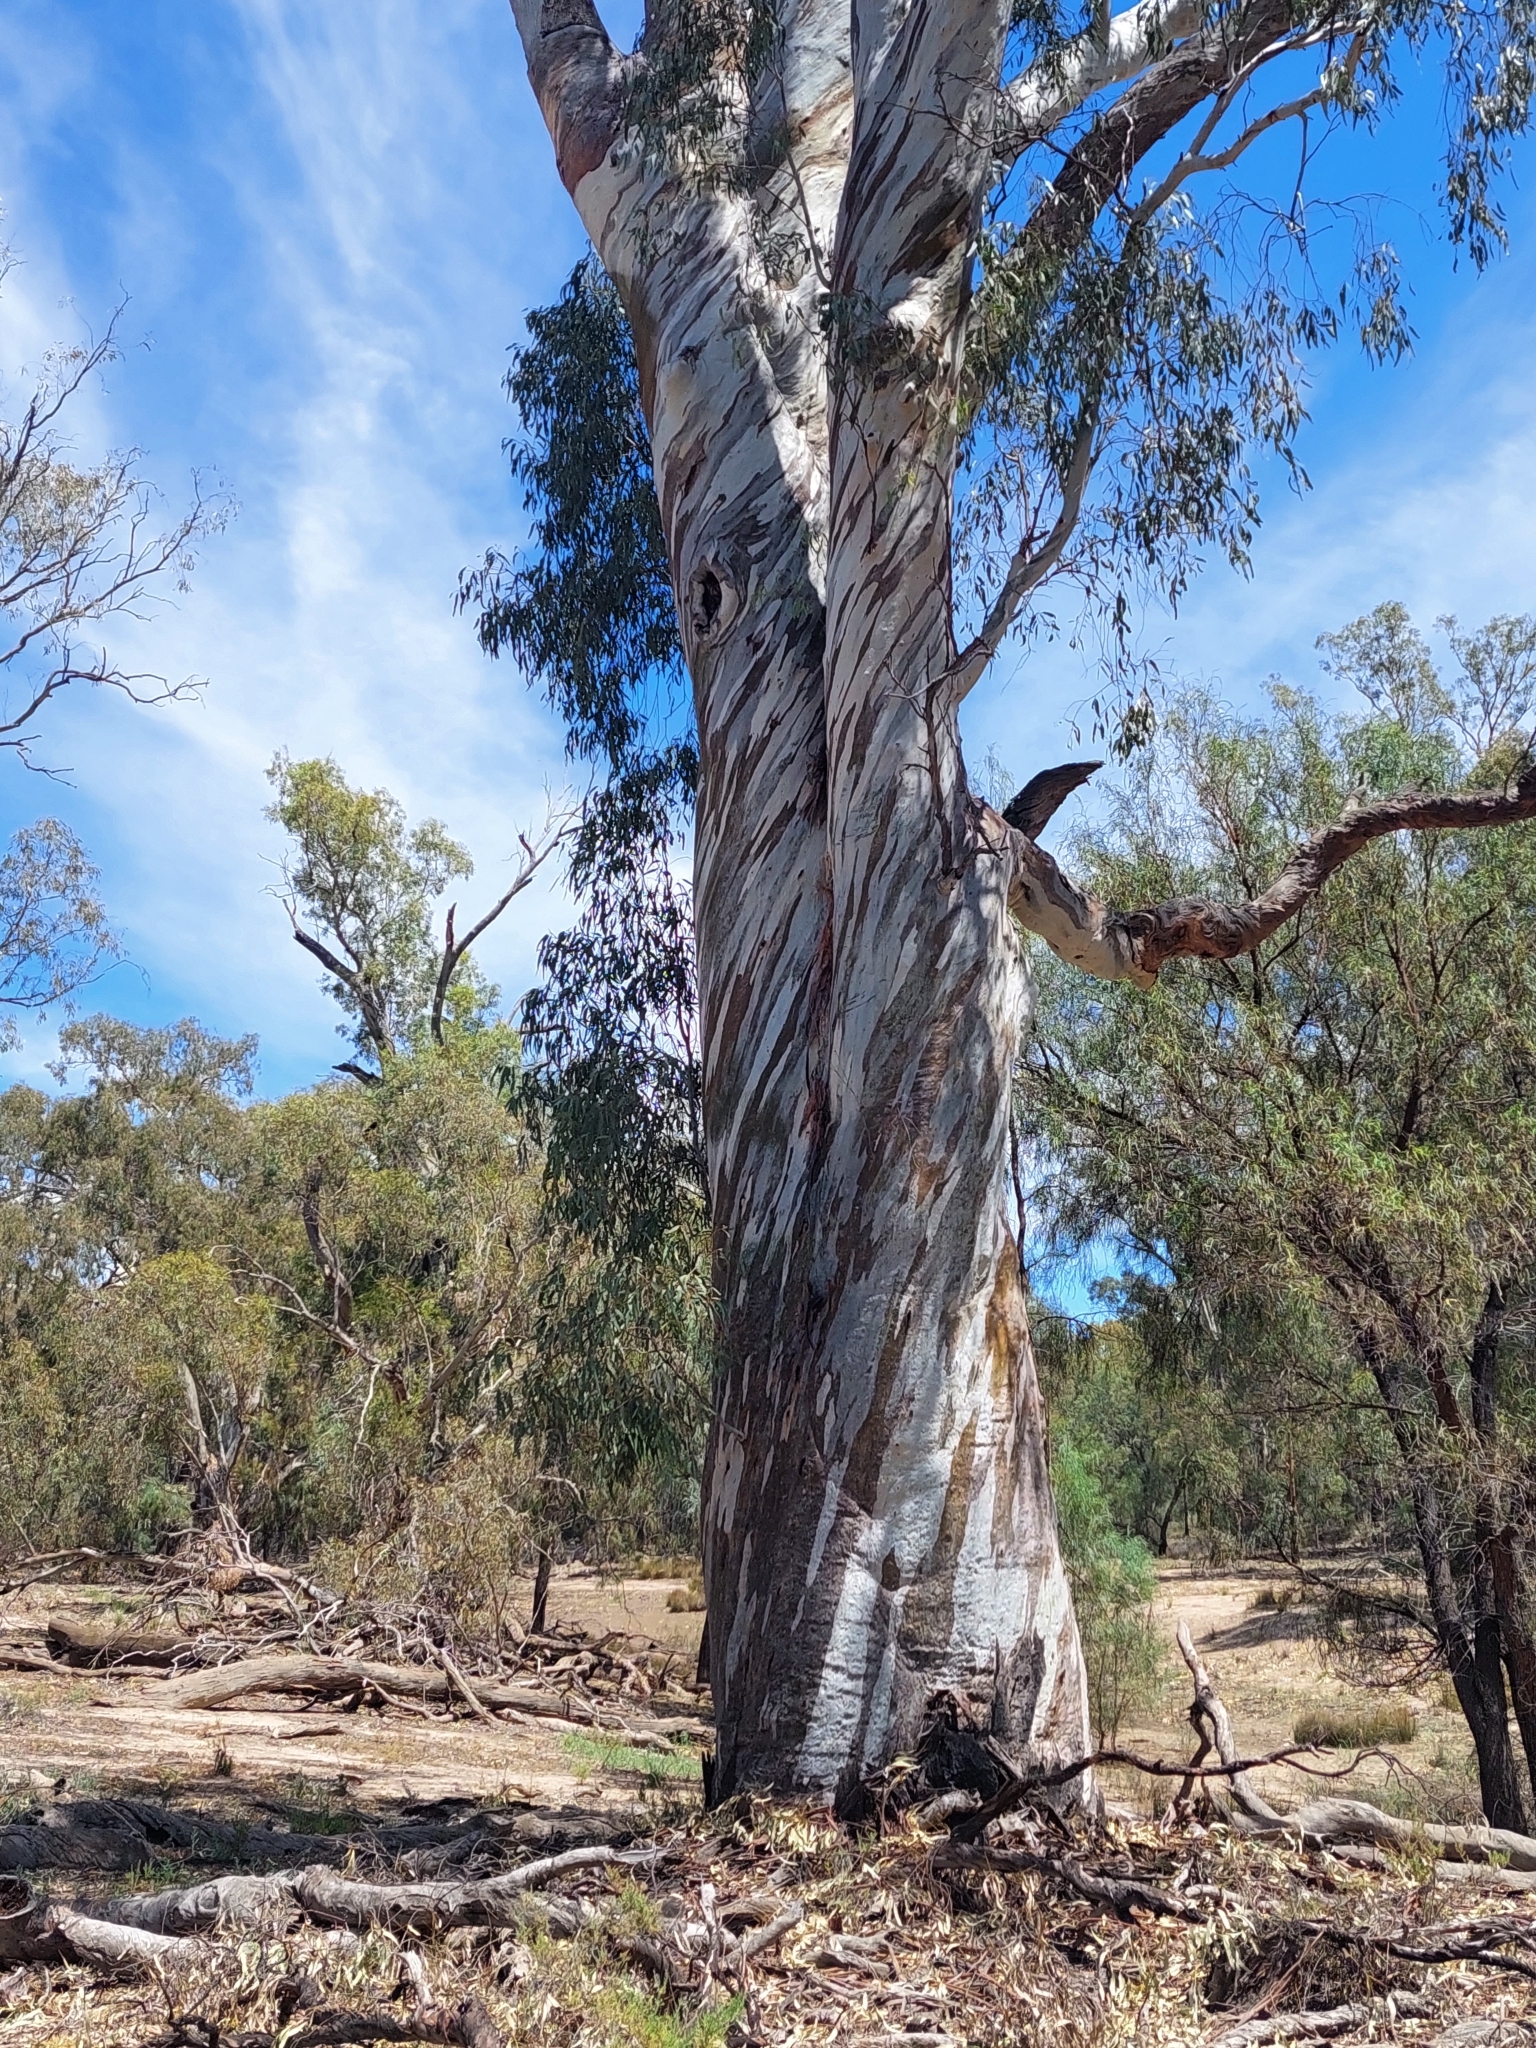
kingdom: Plantae
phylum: Tracheophyta
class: Magnoliopsida
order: Myrtales
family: Myrtaceae
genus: Eucalyptus
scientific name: Eucalyptus camaldulensis
